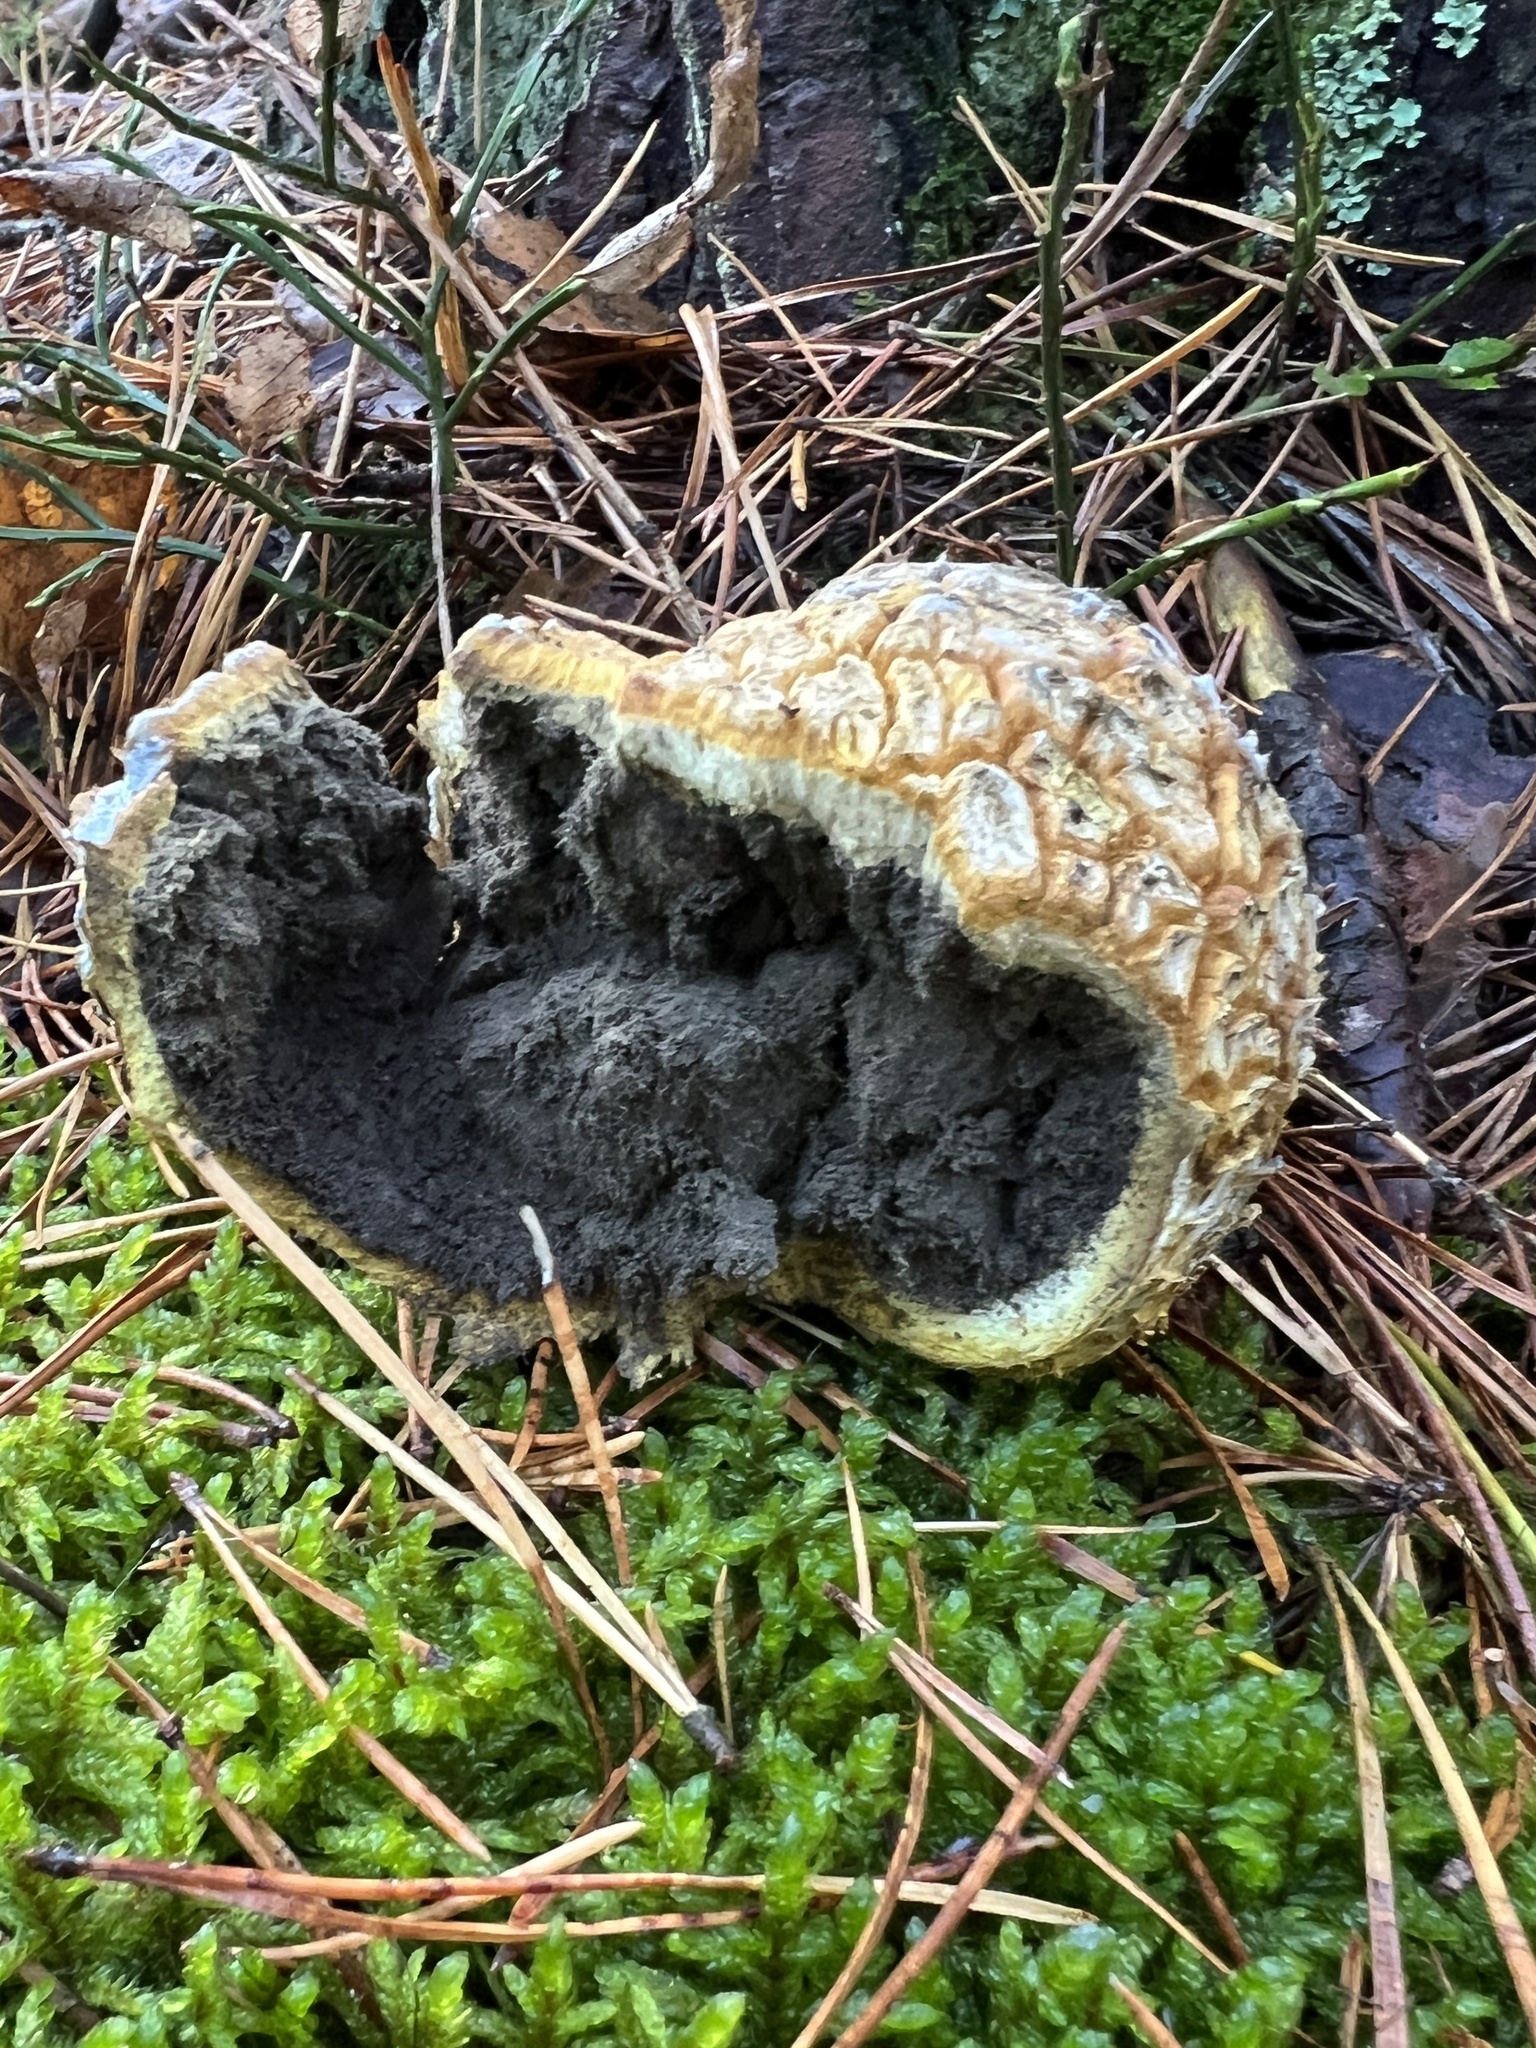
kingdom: Fungi
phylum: Basidiomycota
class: Agaricomycetes
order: Boletales
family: Sclerodermataceae
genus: Scleroderma
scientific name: Scleroderma citrinum
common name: Common earthball
